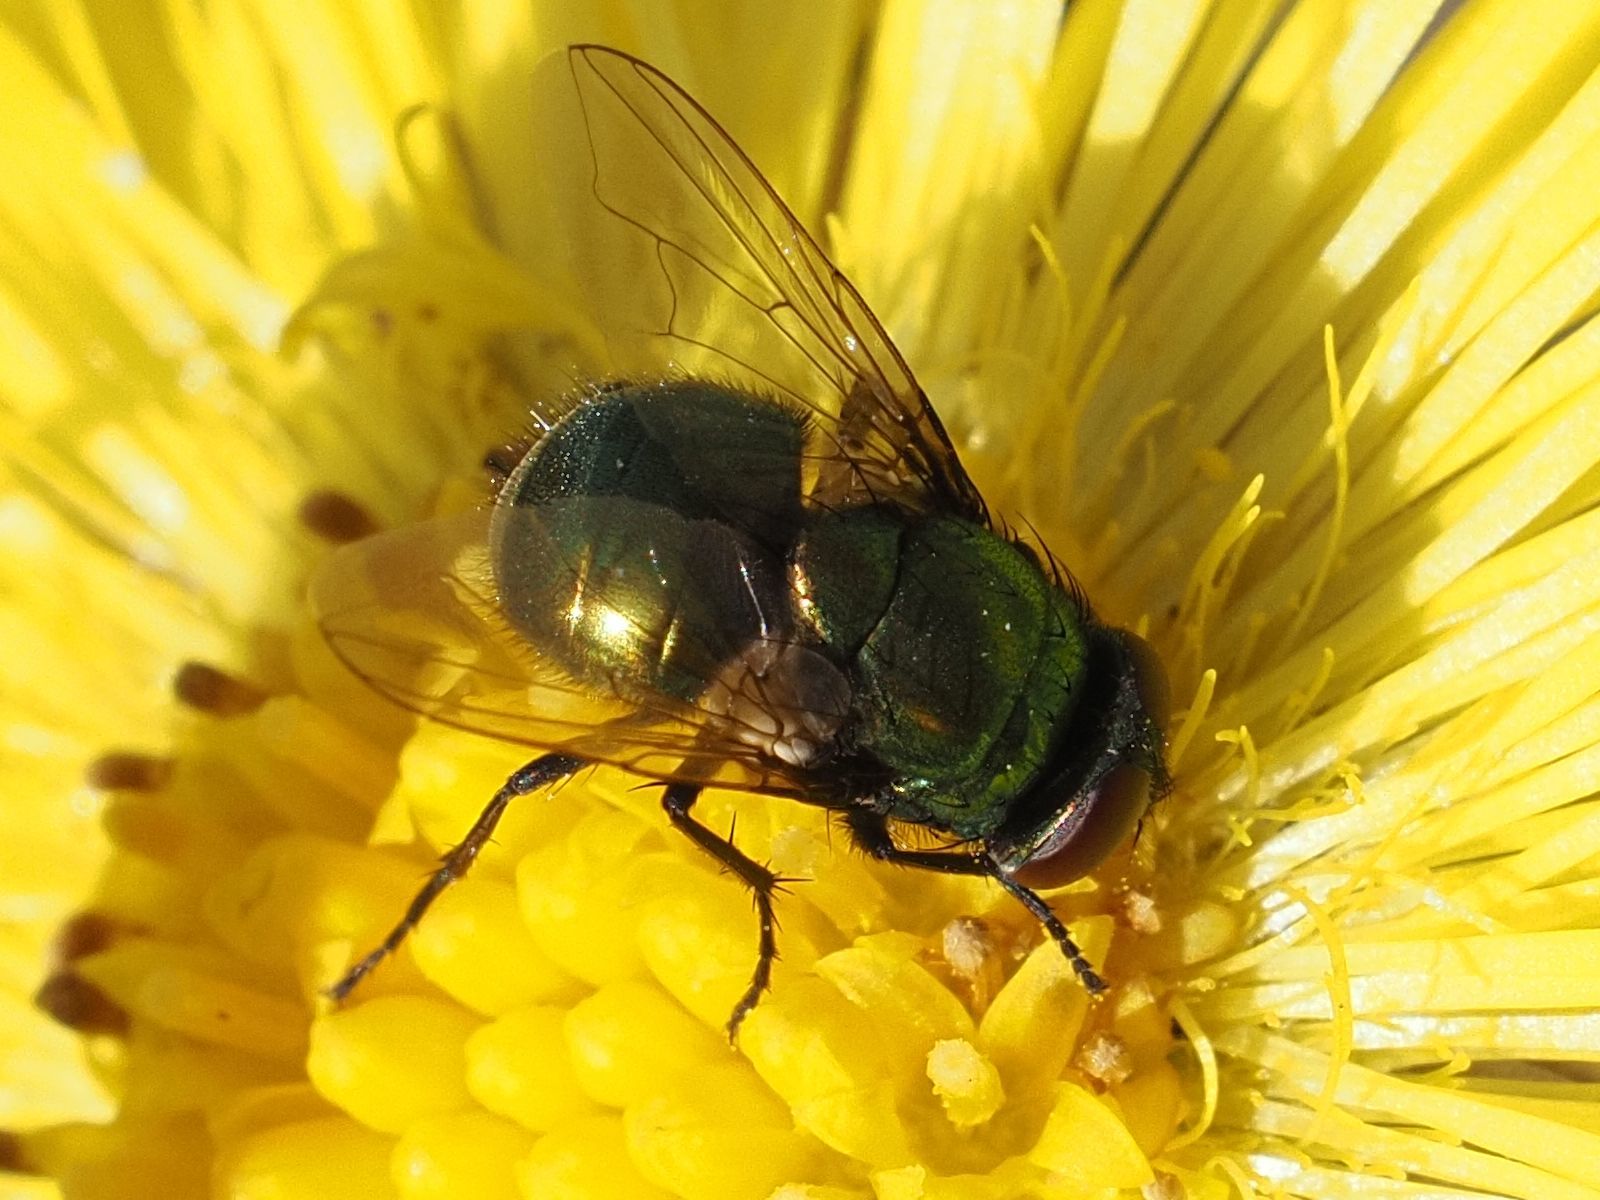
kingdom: Animalia
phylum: Arthropoda
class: Insecta
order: Diptera
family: Muscidae
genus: Neomyia
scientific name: Neomyia cornicina
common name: House fly
